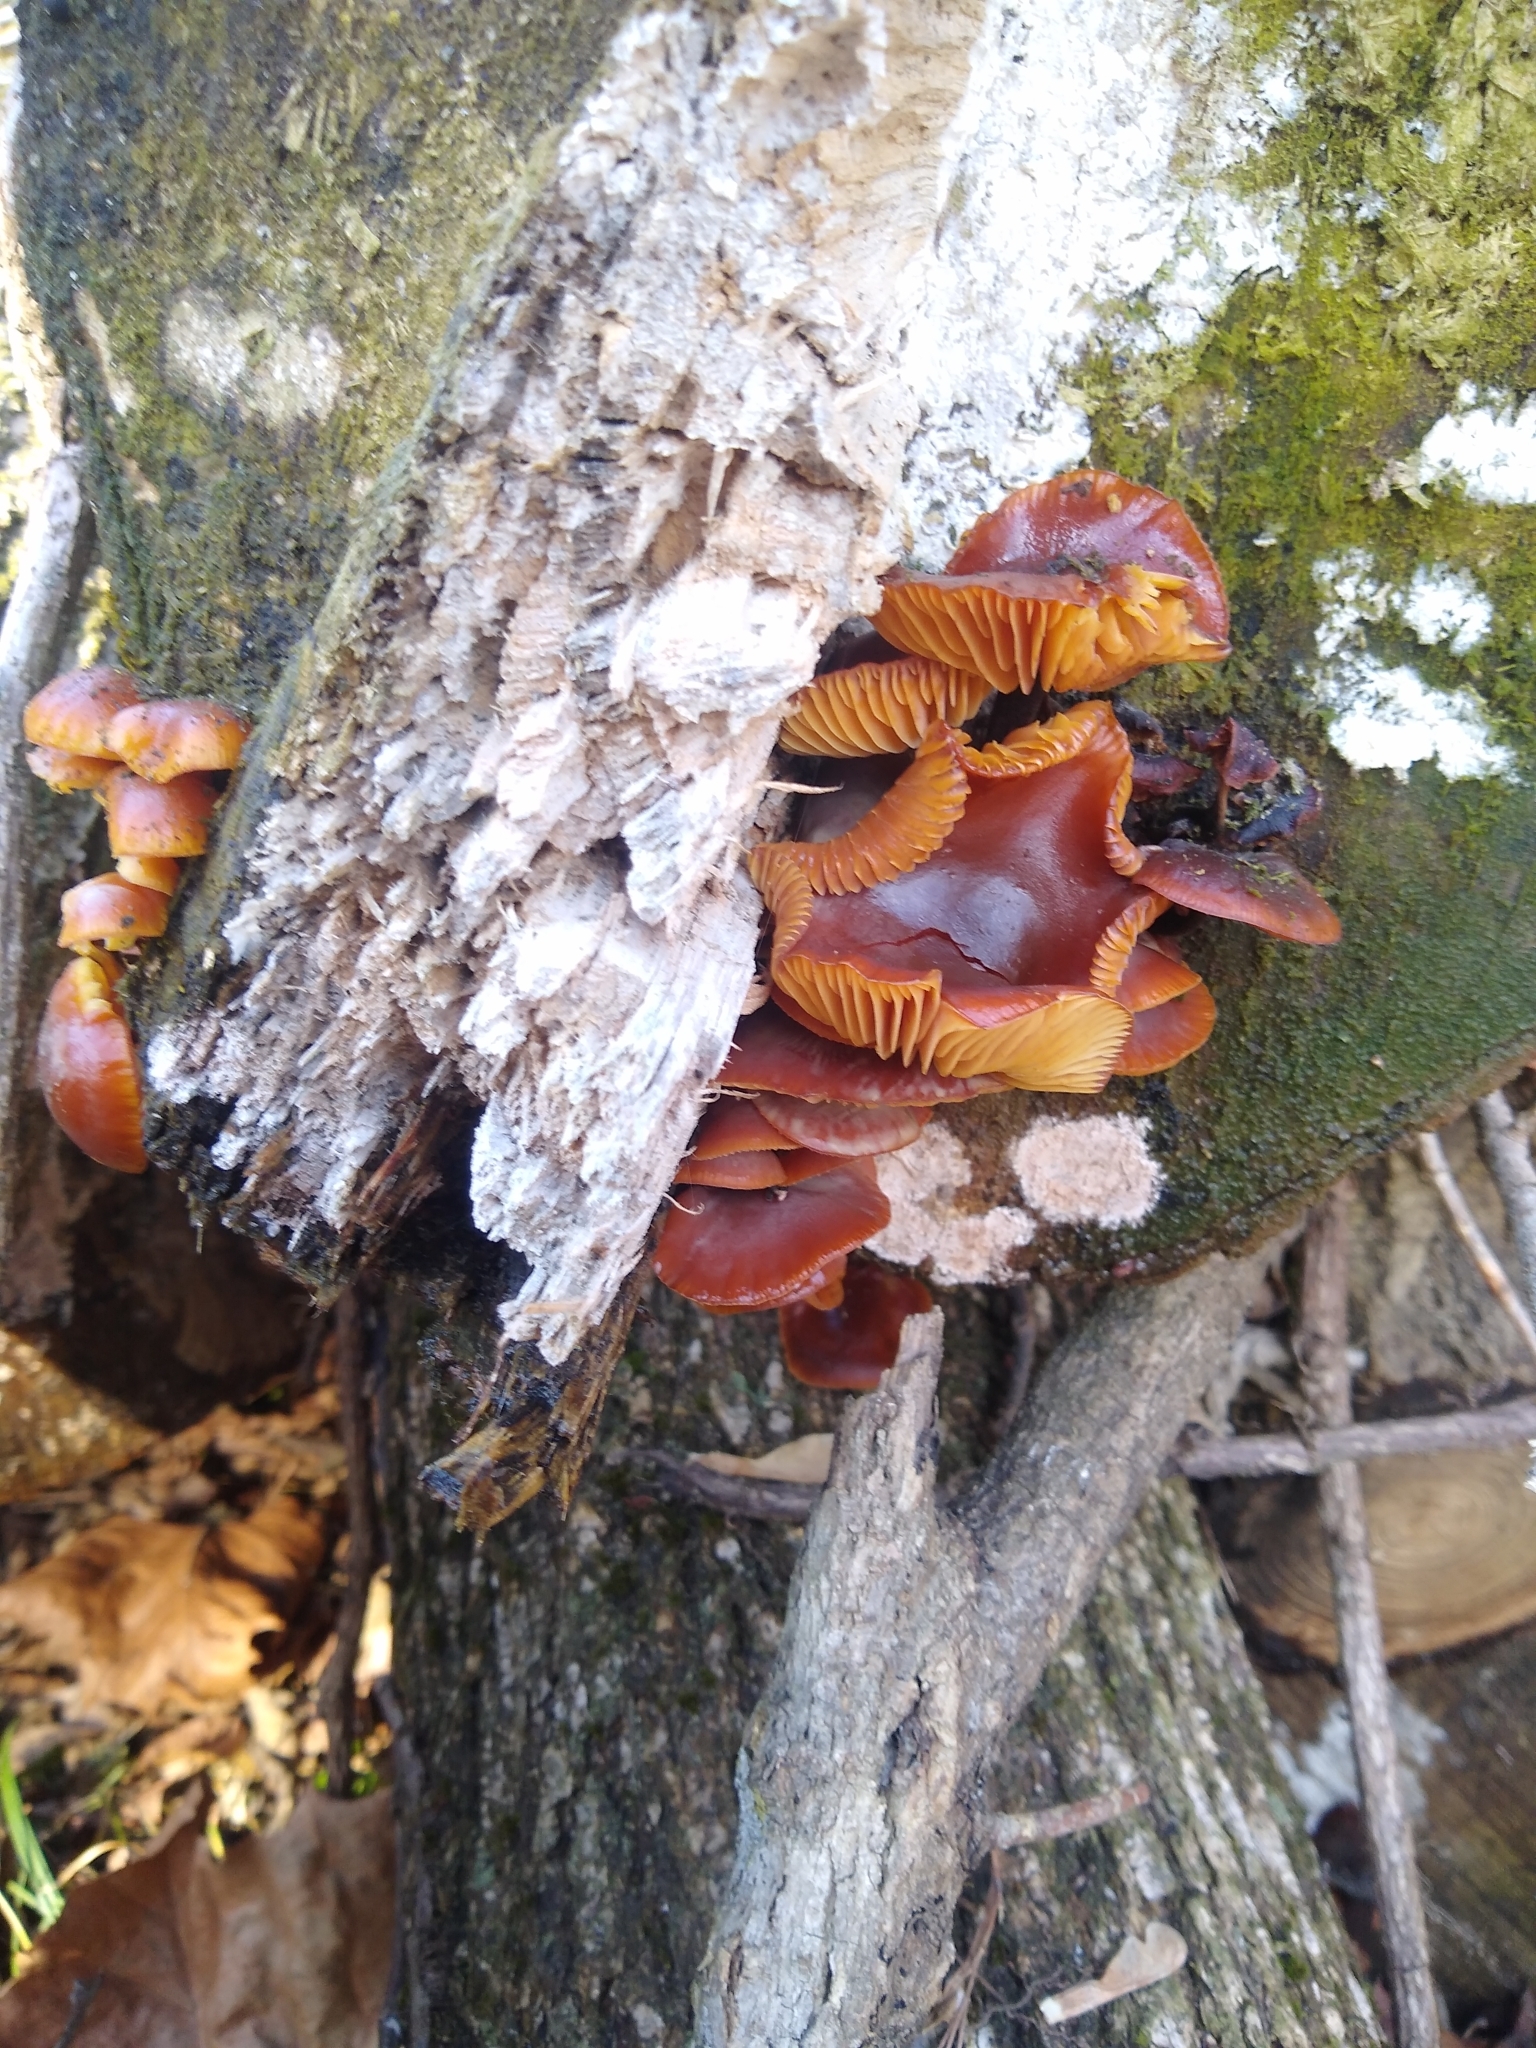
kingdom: Fungi
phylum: Basidiomycota
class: Agaricomycetes
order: Agaricales
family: Physalacriaceae
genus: Flammulina
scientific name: Flammulina velutipes
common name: Velvet shank
